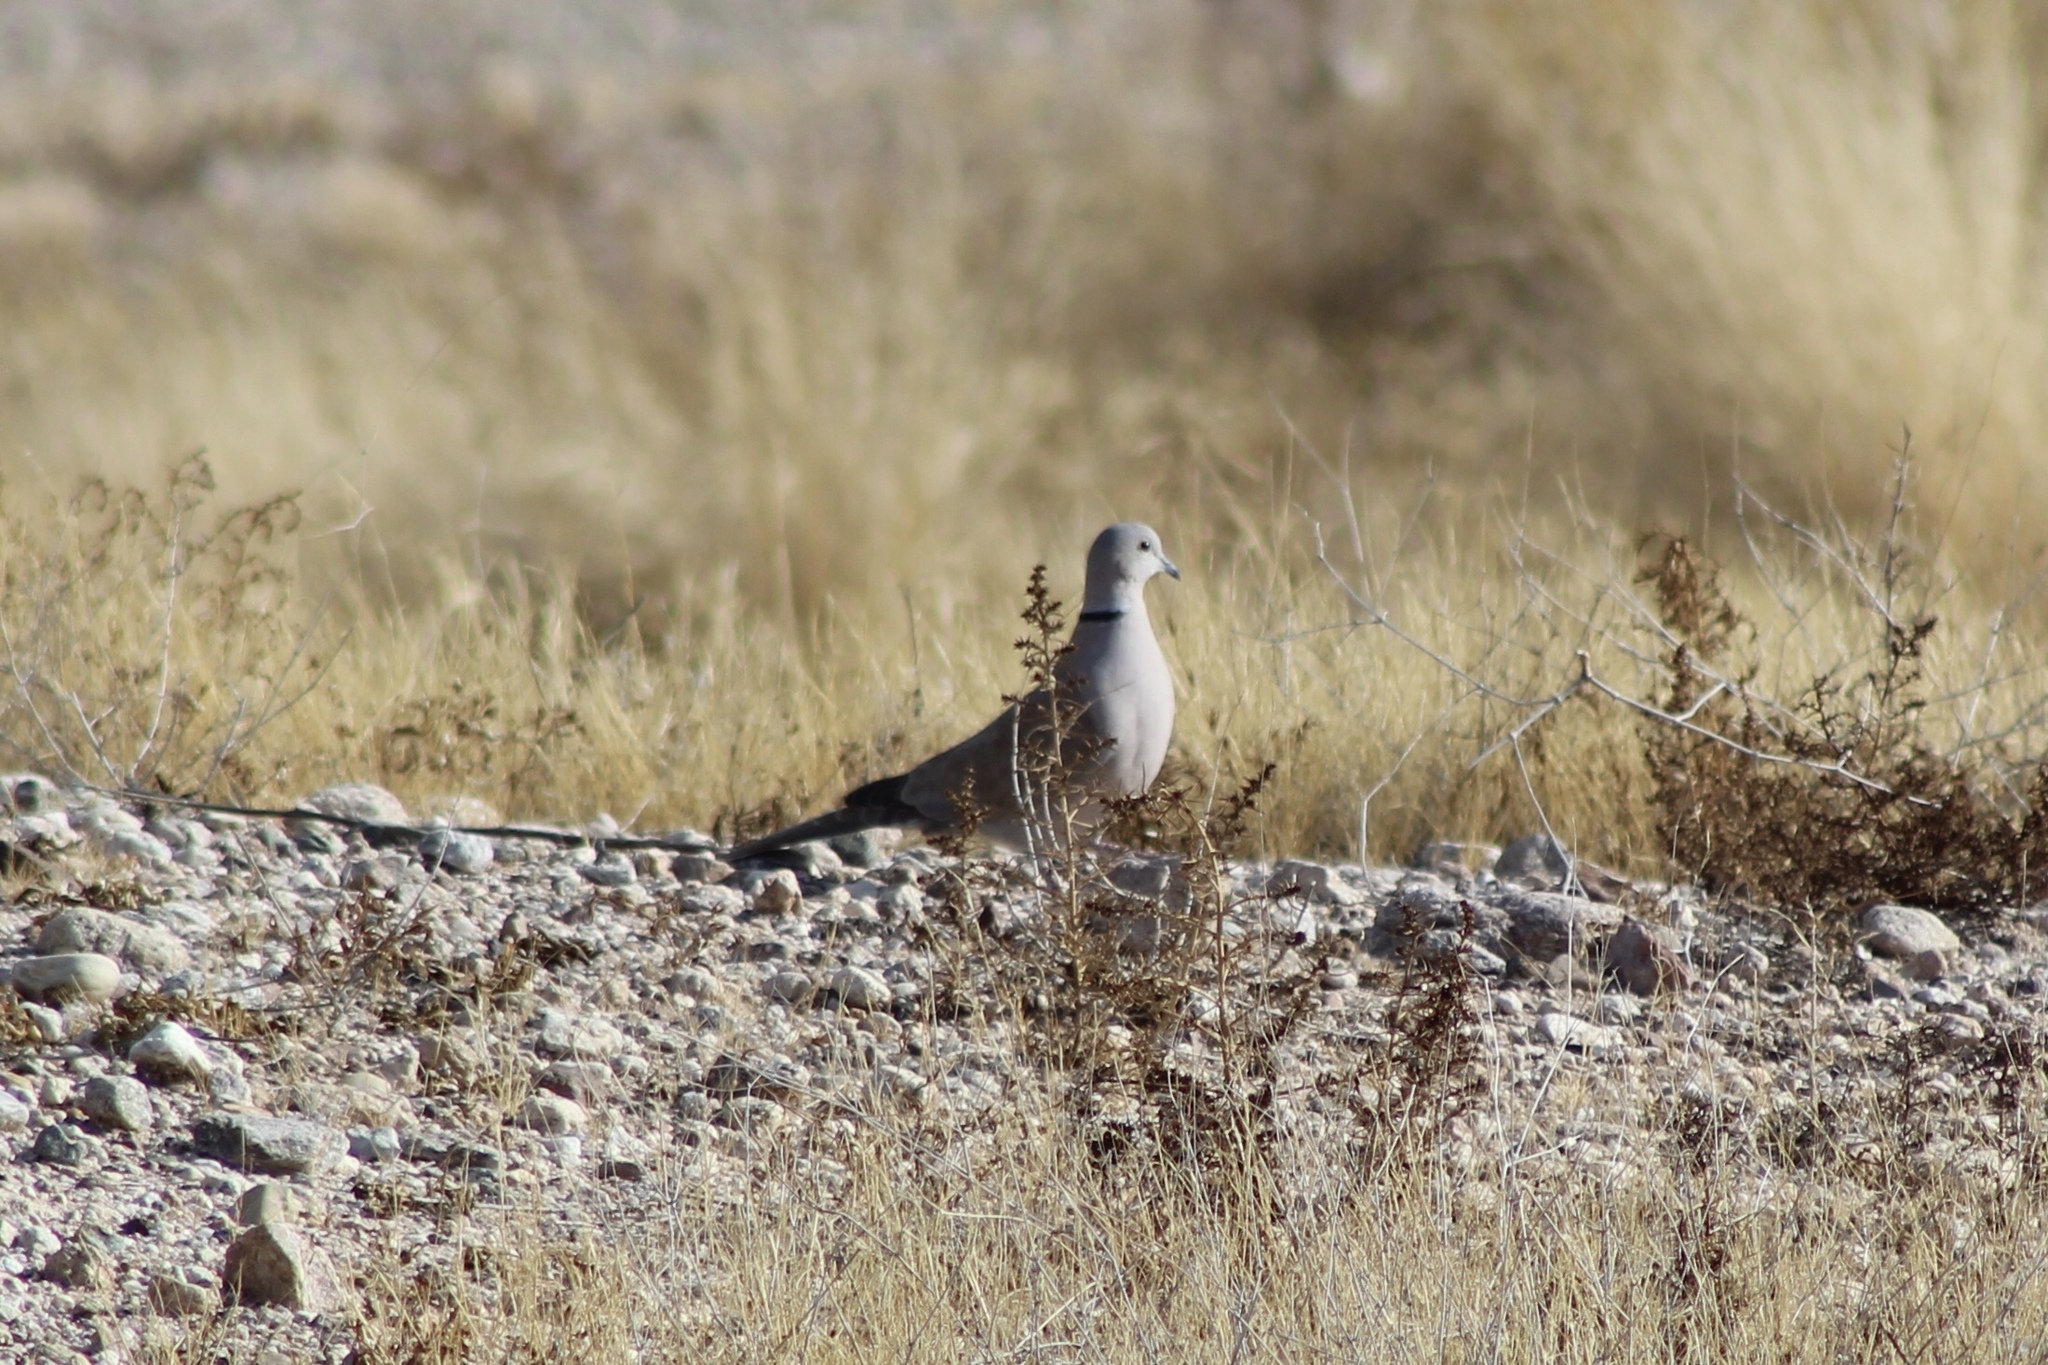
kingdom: Animalia
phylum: Chordata
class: Aves
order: Columbiformes
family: Columbidae
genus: Streptopelia
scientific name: Streptopelia decaocto
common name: Eurasian collared dove
